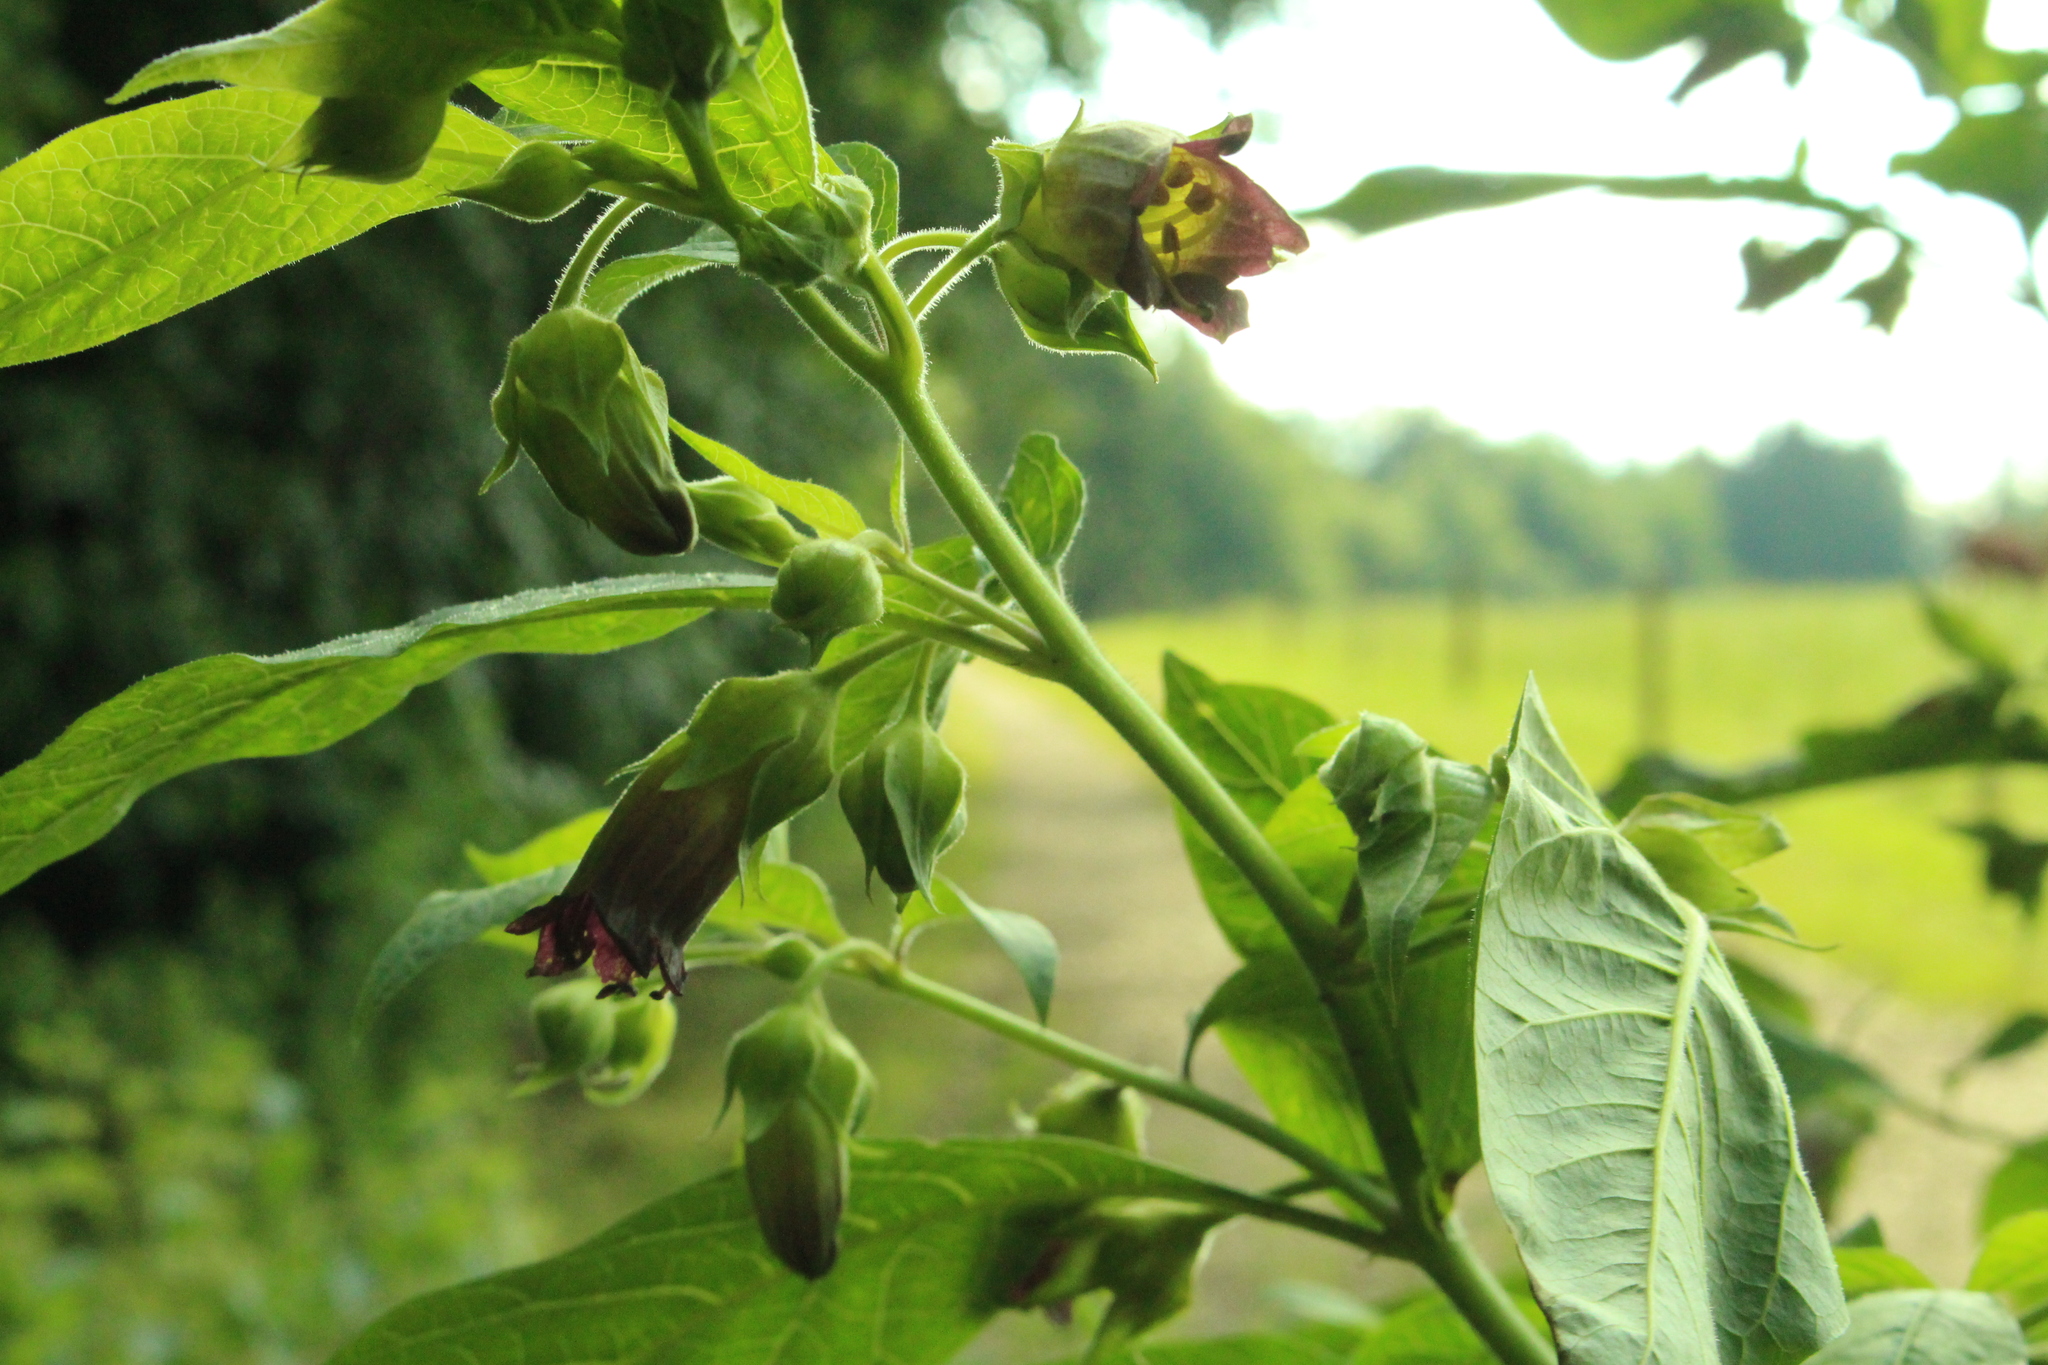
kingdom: Plantae
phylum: Tracheophyta
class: Magnoliopsida
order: Solanales
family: Solanaceae
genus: Atropa
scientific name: Atropa belladonna
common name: Deadly nightshade
